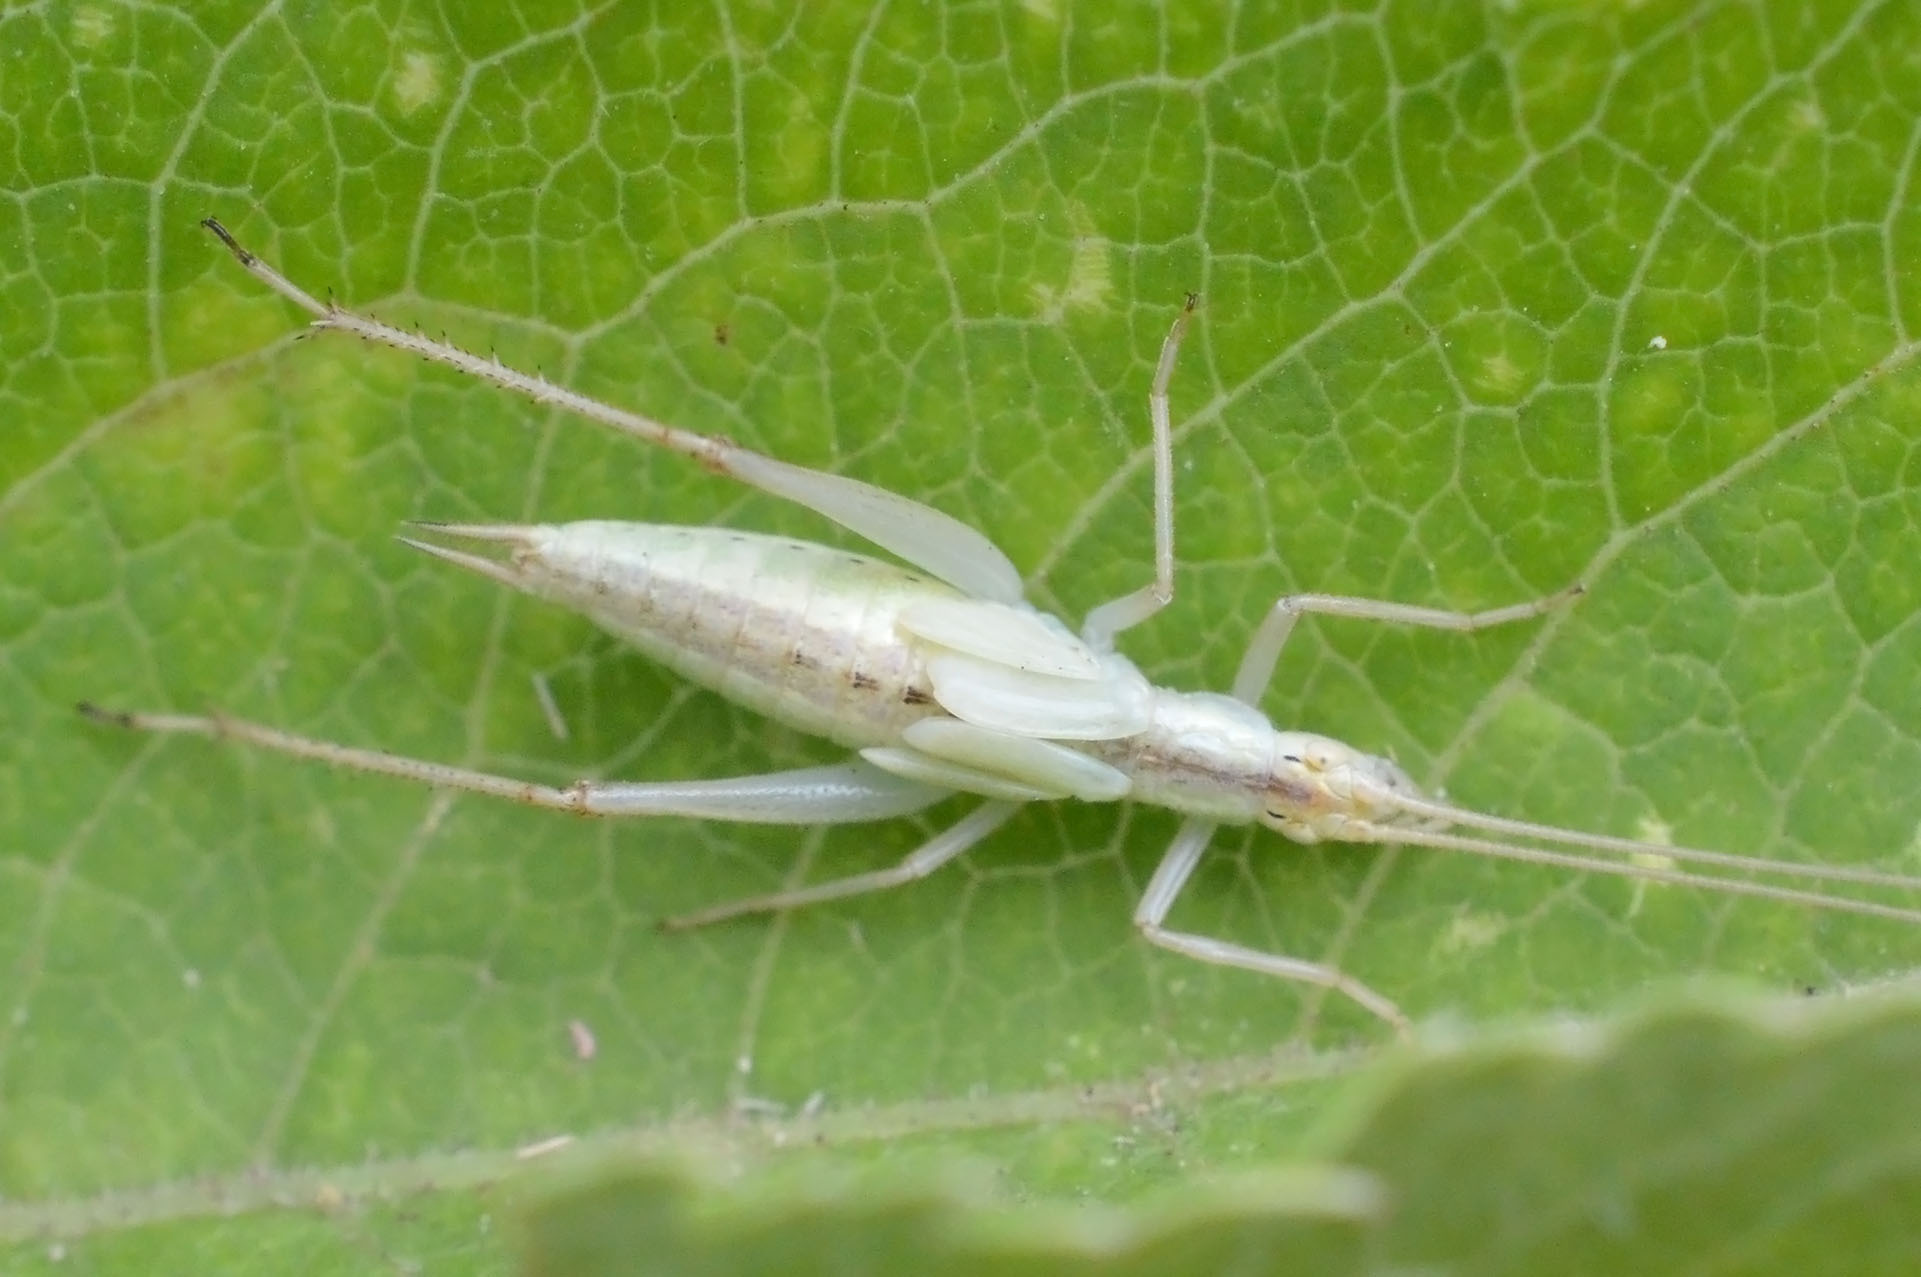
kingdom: Animalia
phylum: Arthropoda
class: Insecta
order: Orthoptera
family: Gryllidae
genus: Oecanthus
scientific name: Oecanthus pellucens
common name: Tree-cricket
